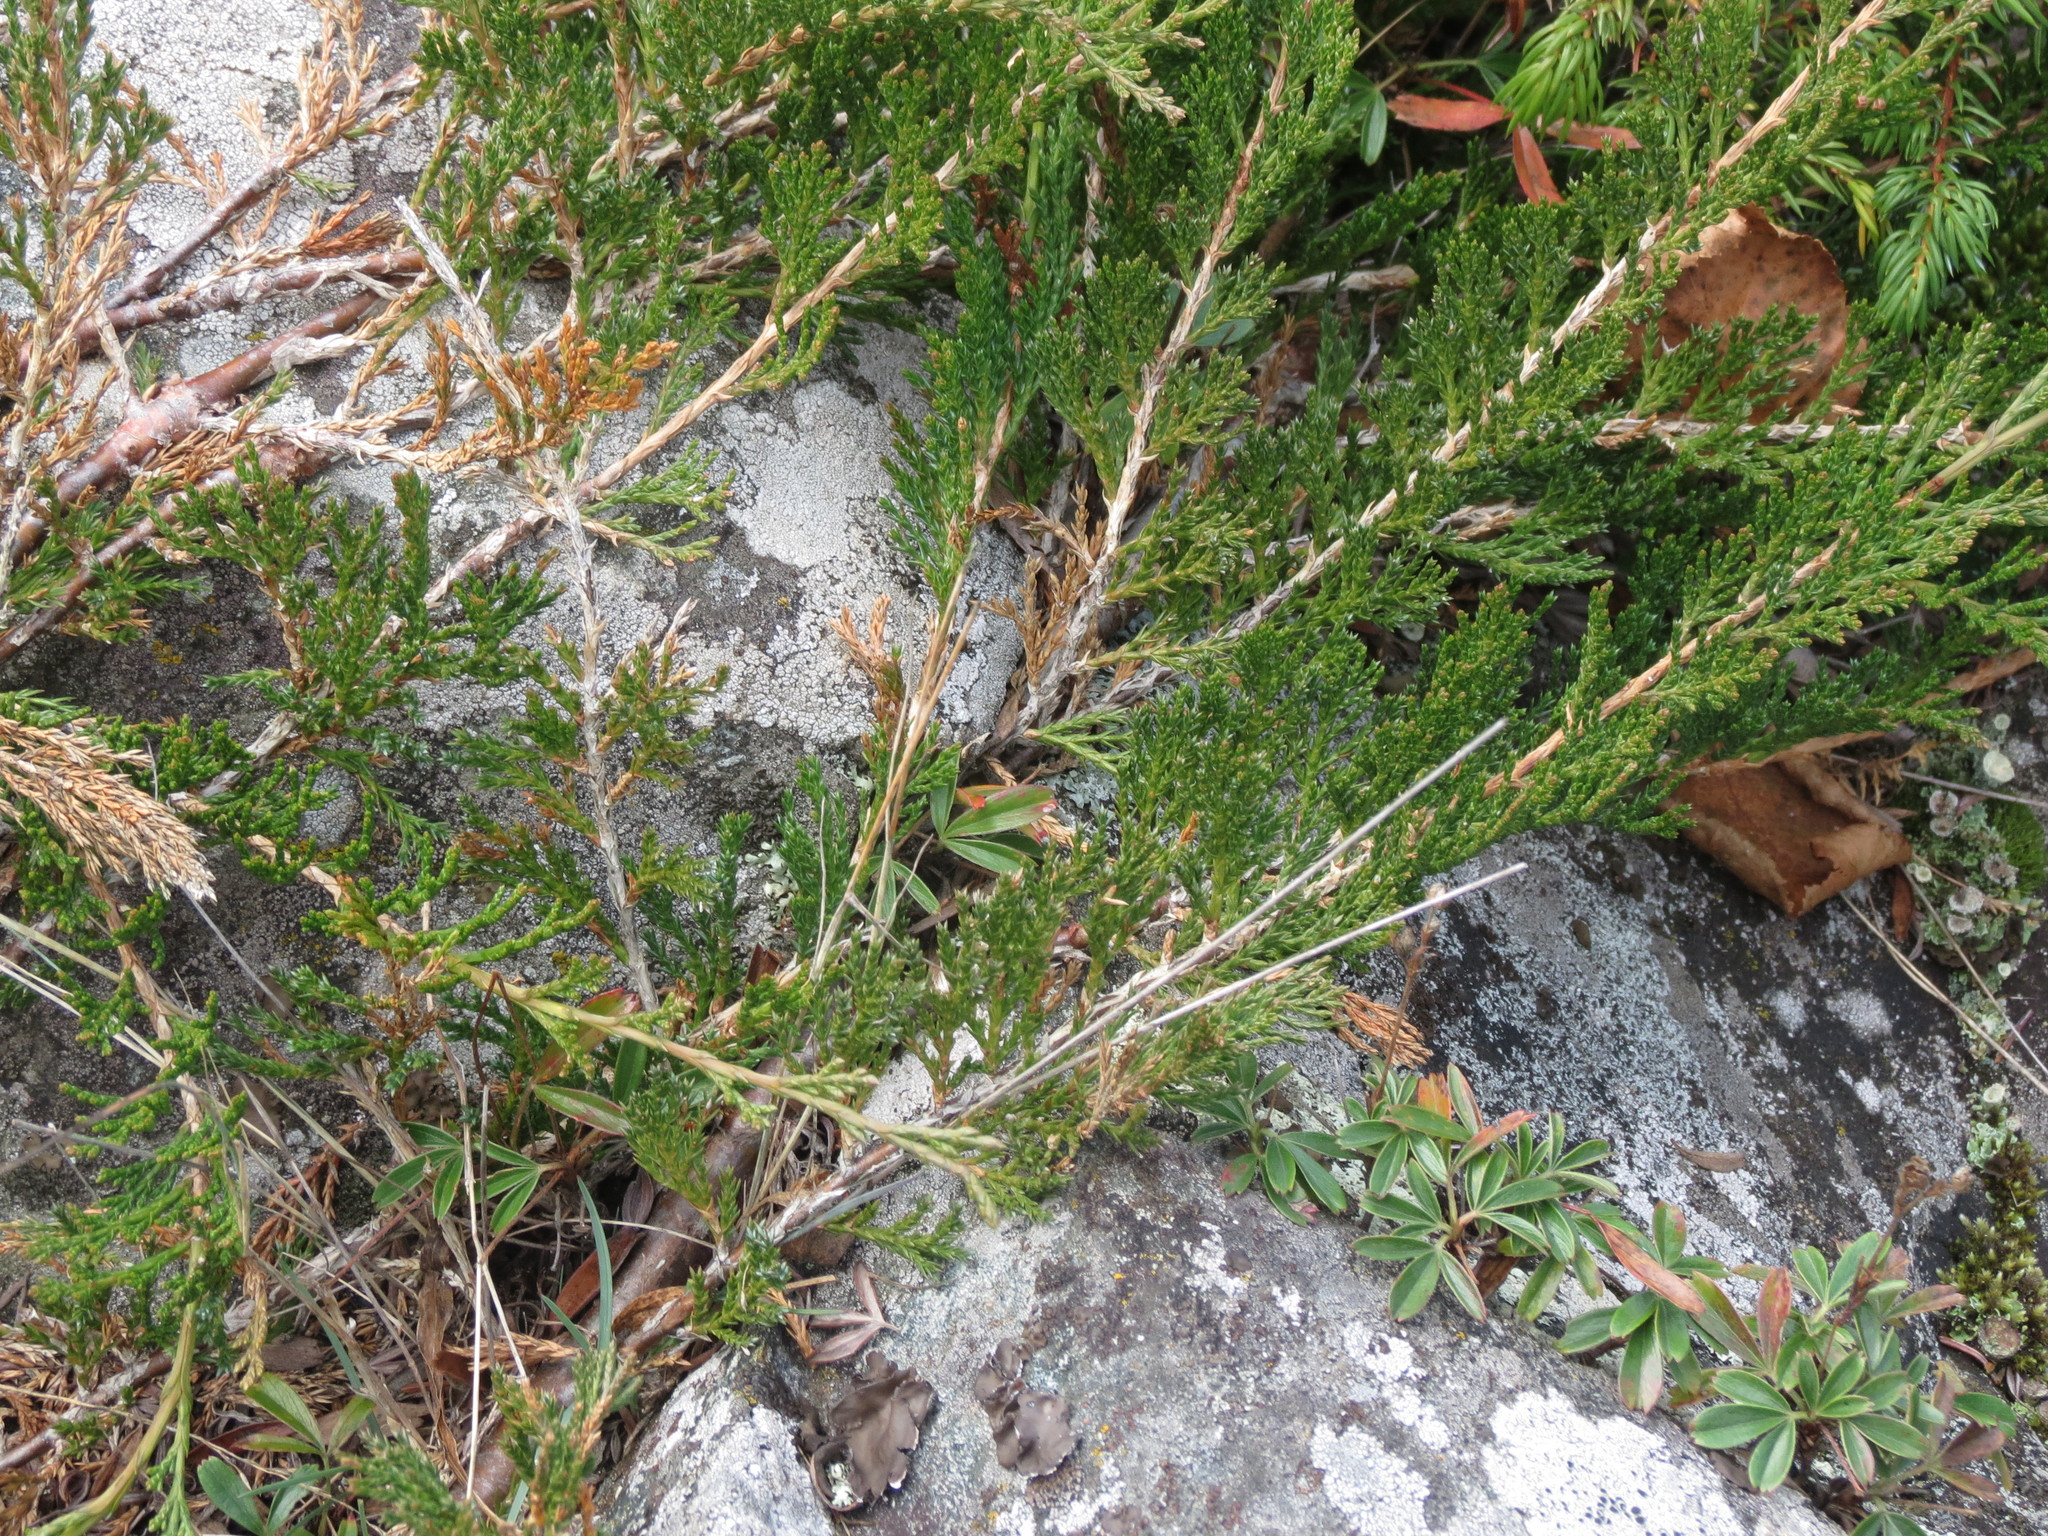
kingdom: Plantae
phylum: Tracheophyta
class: Pinopsida
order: Pinales
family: Cupressaceae
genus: Juniperus
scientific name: Juniperus horizontalis
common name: Creeping juniper
